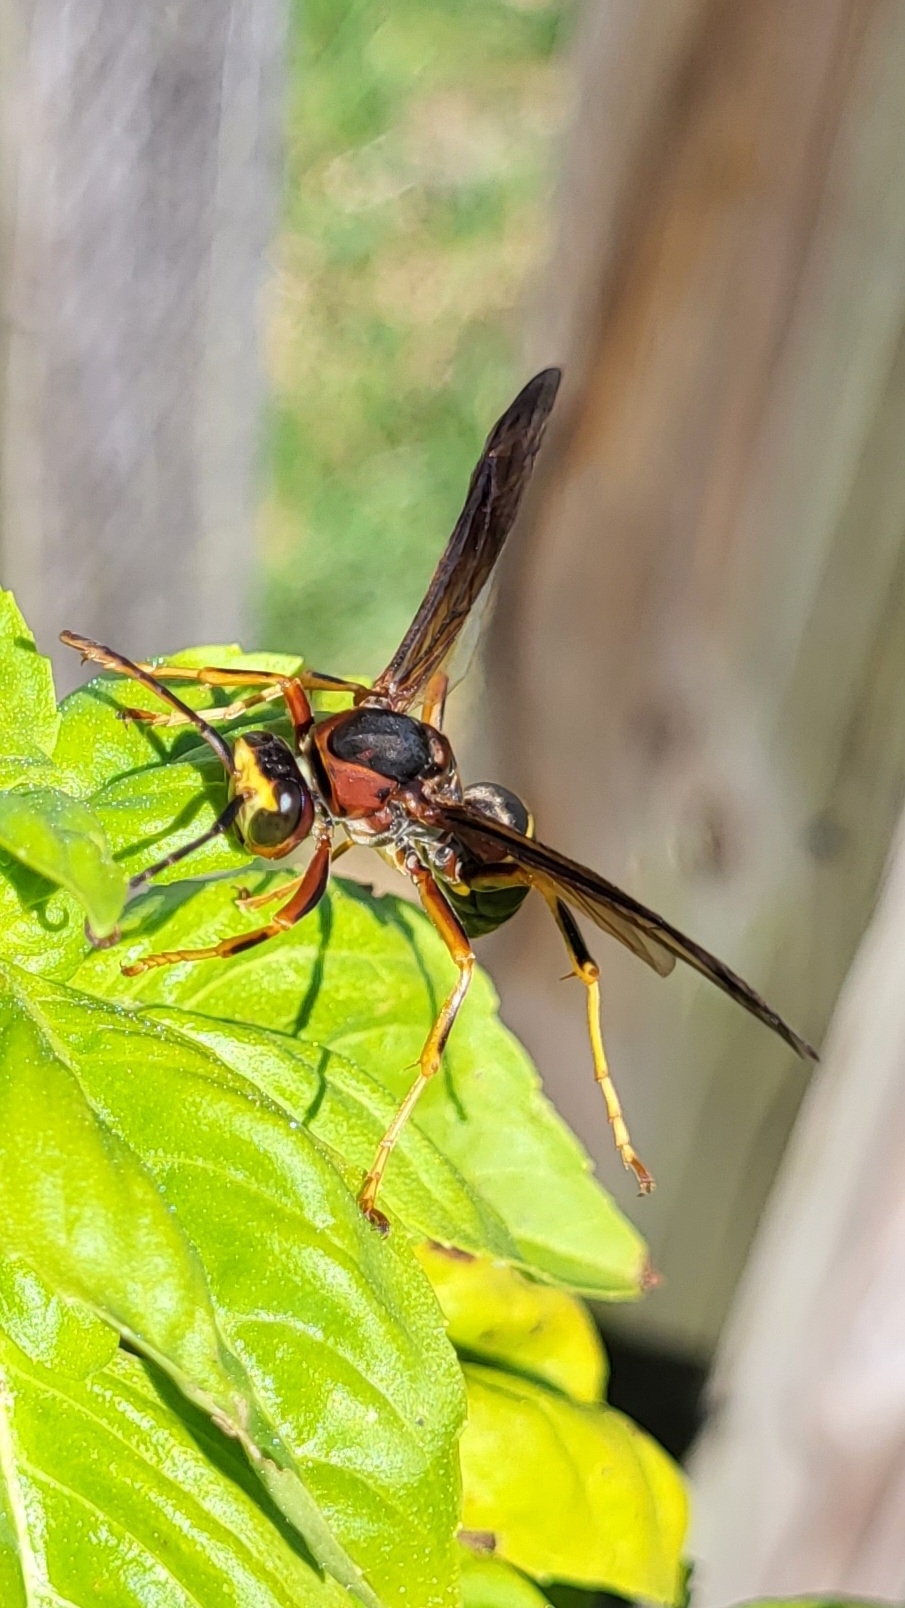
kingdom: Animalia
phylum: Arthropoda
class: Insecta
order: Hymenoptera
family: Eumenidae
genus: Polistes
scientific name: Polistes metricus
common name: Metric paper wasp
